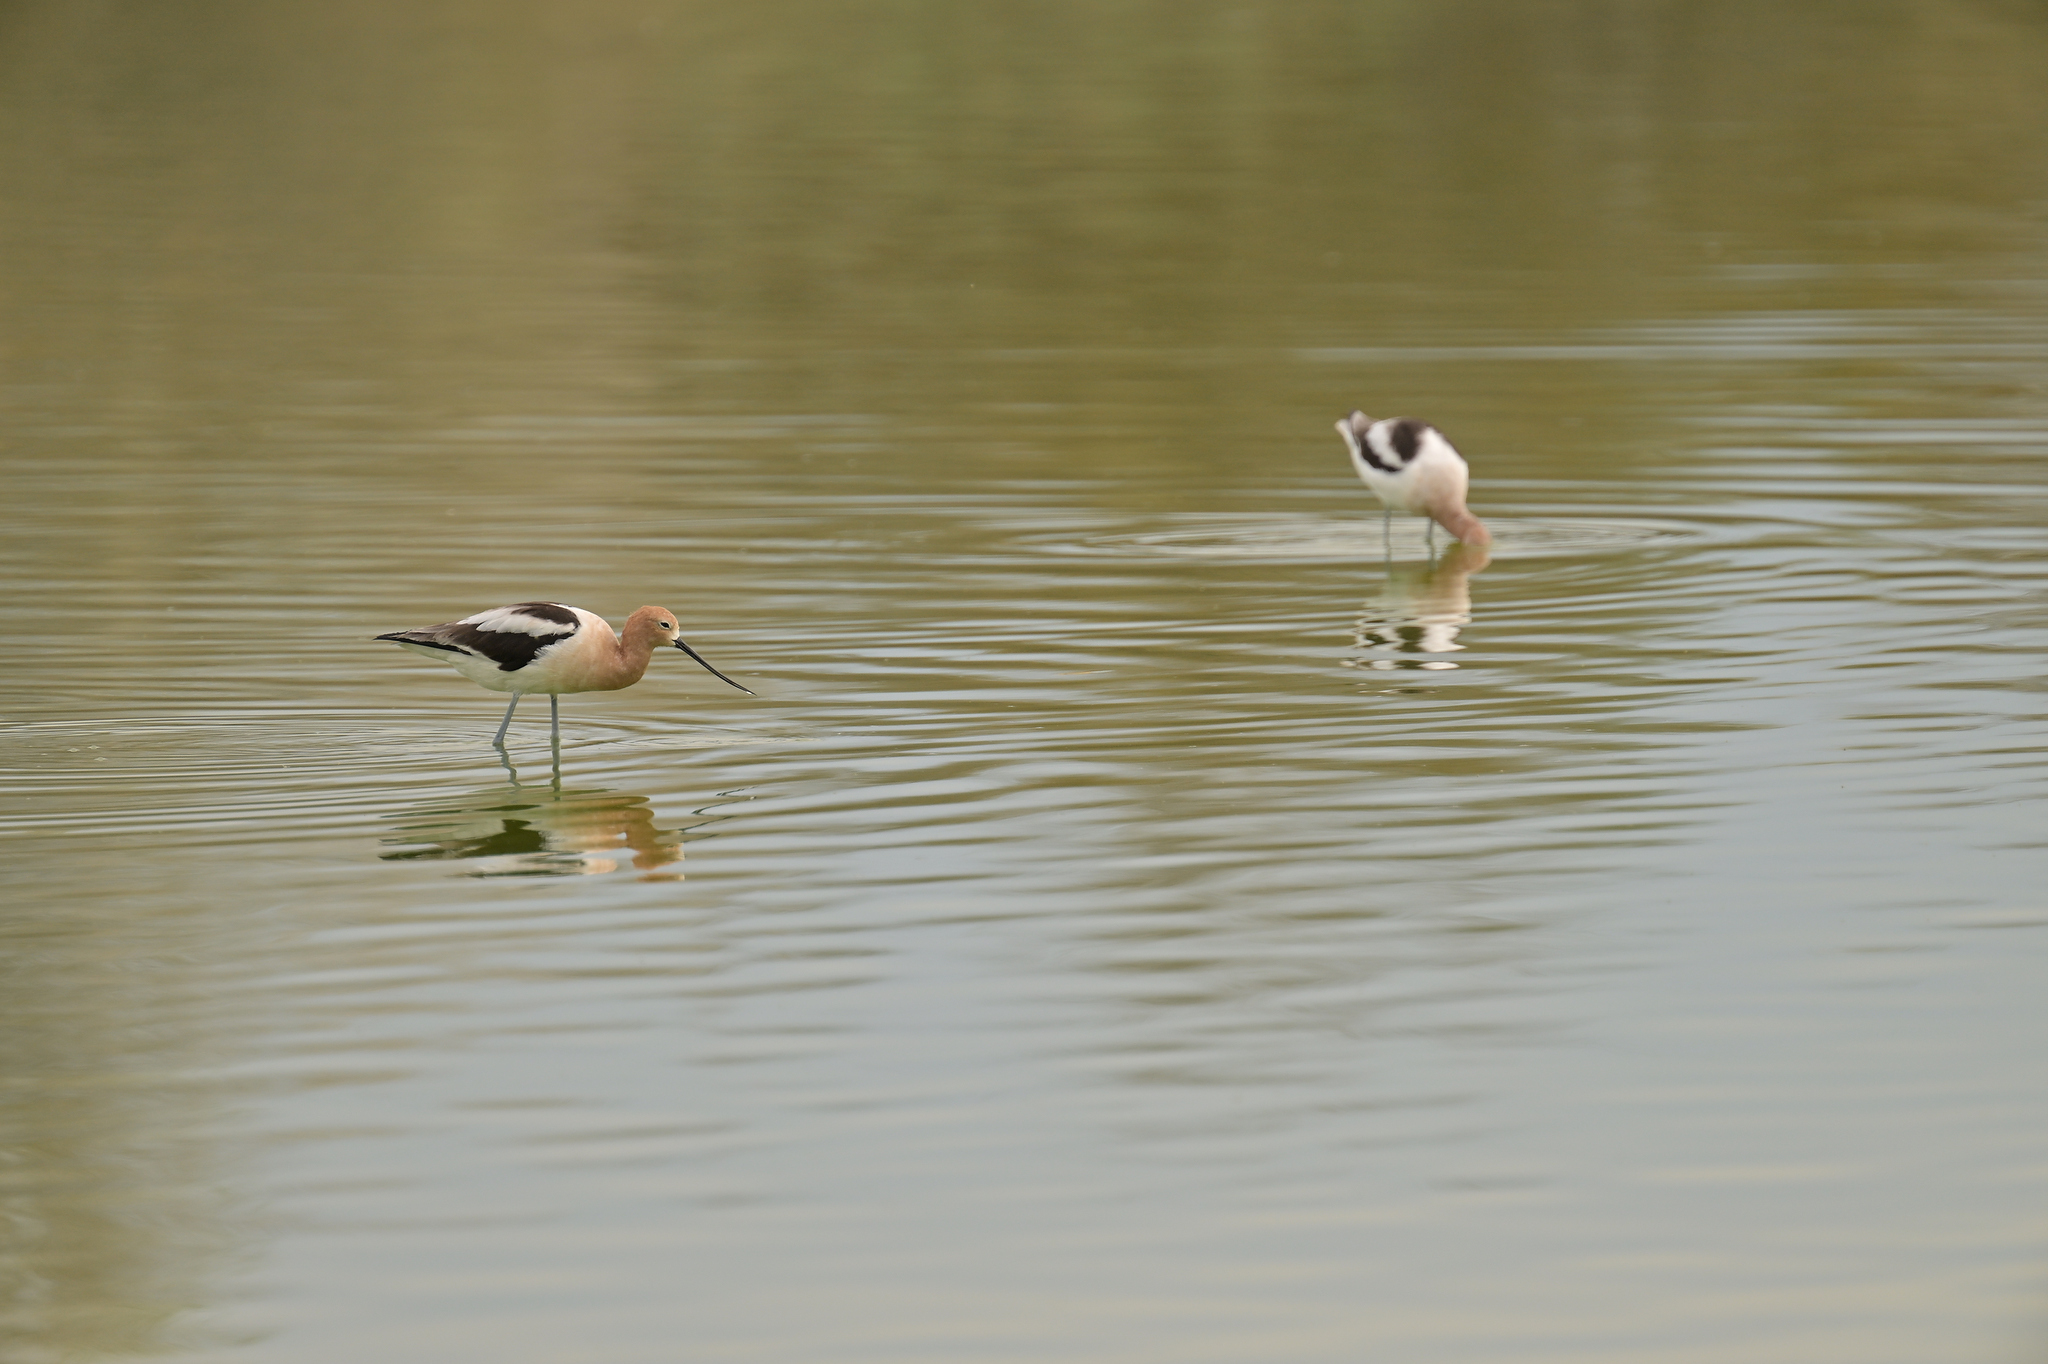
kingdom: Animalia
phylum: Chordata
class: Aves
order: Charadriiformes
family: Recurvirostridae
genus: Recurvirostra
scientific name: Recurvirostra americana
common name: American avocet
